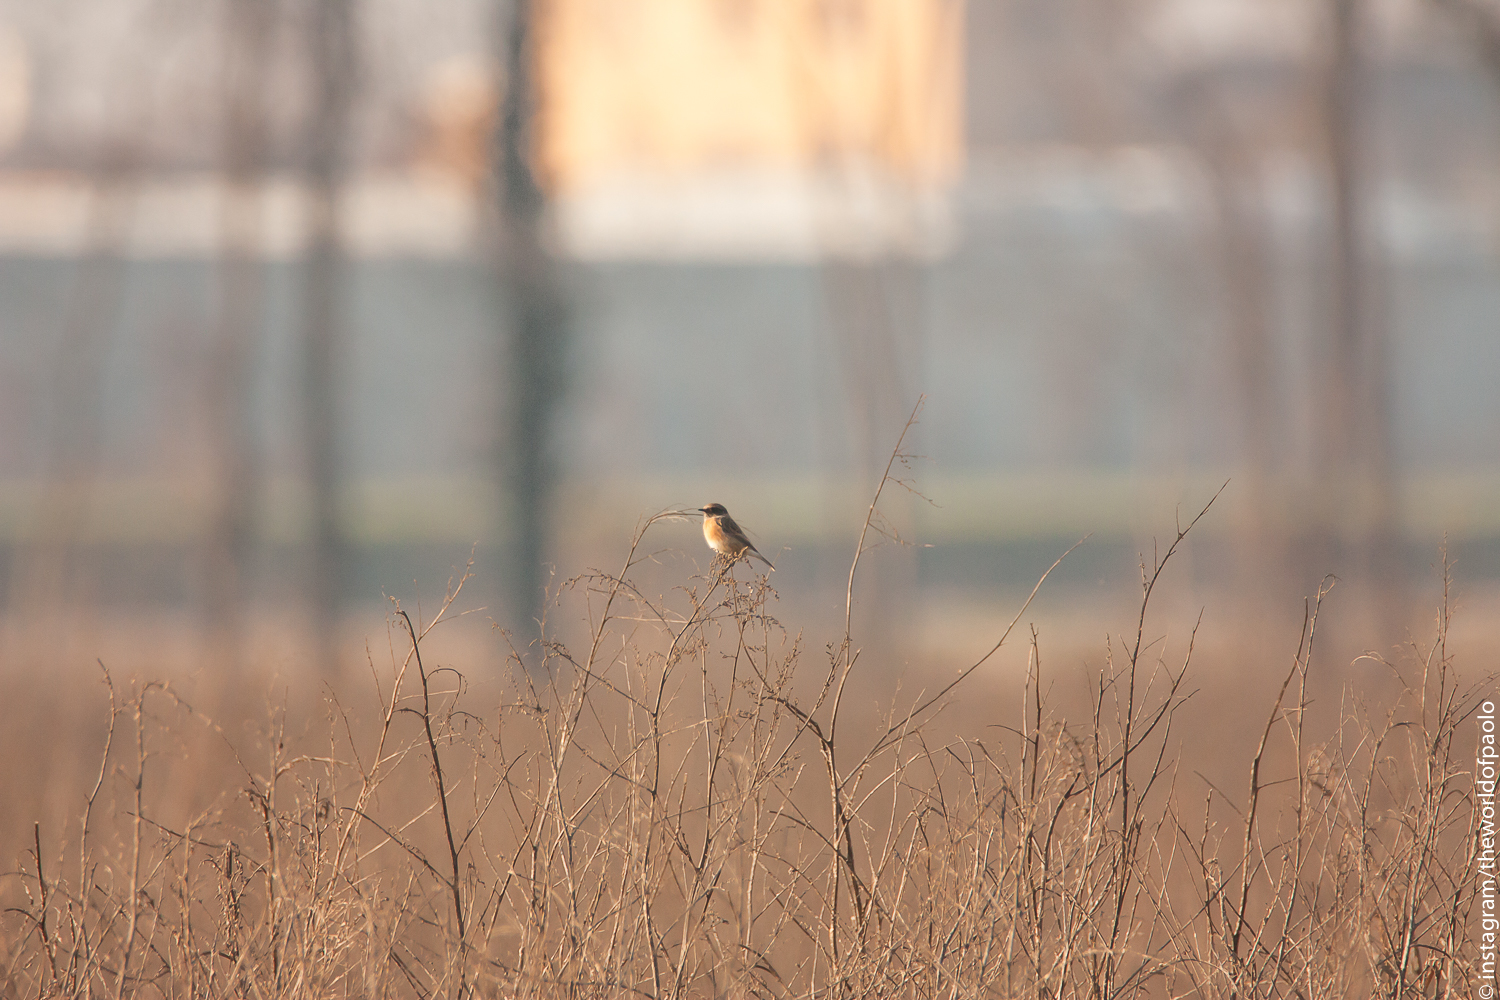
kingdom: Animalia
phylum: Chordata
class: Aves
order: Passeriformes
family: Muscicapidae
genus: Saxicola
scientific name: Saxicola rubicola
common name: European stonechat
